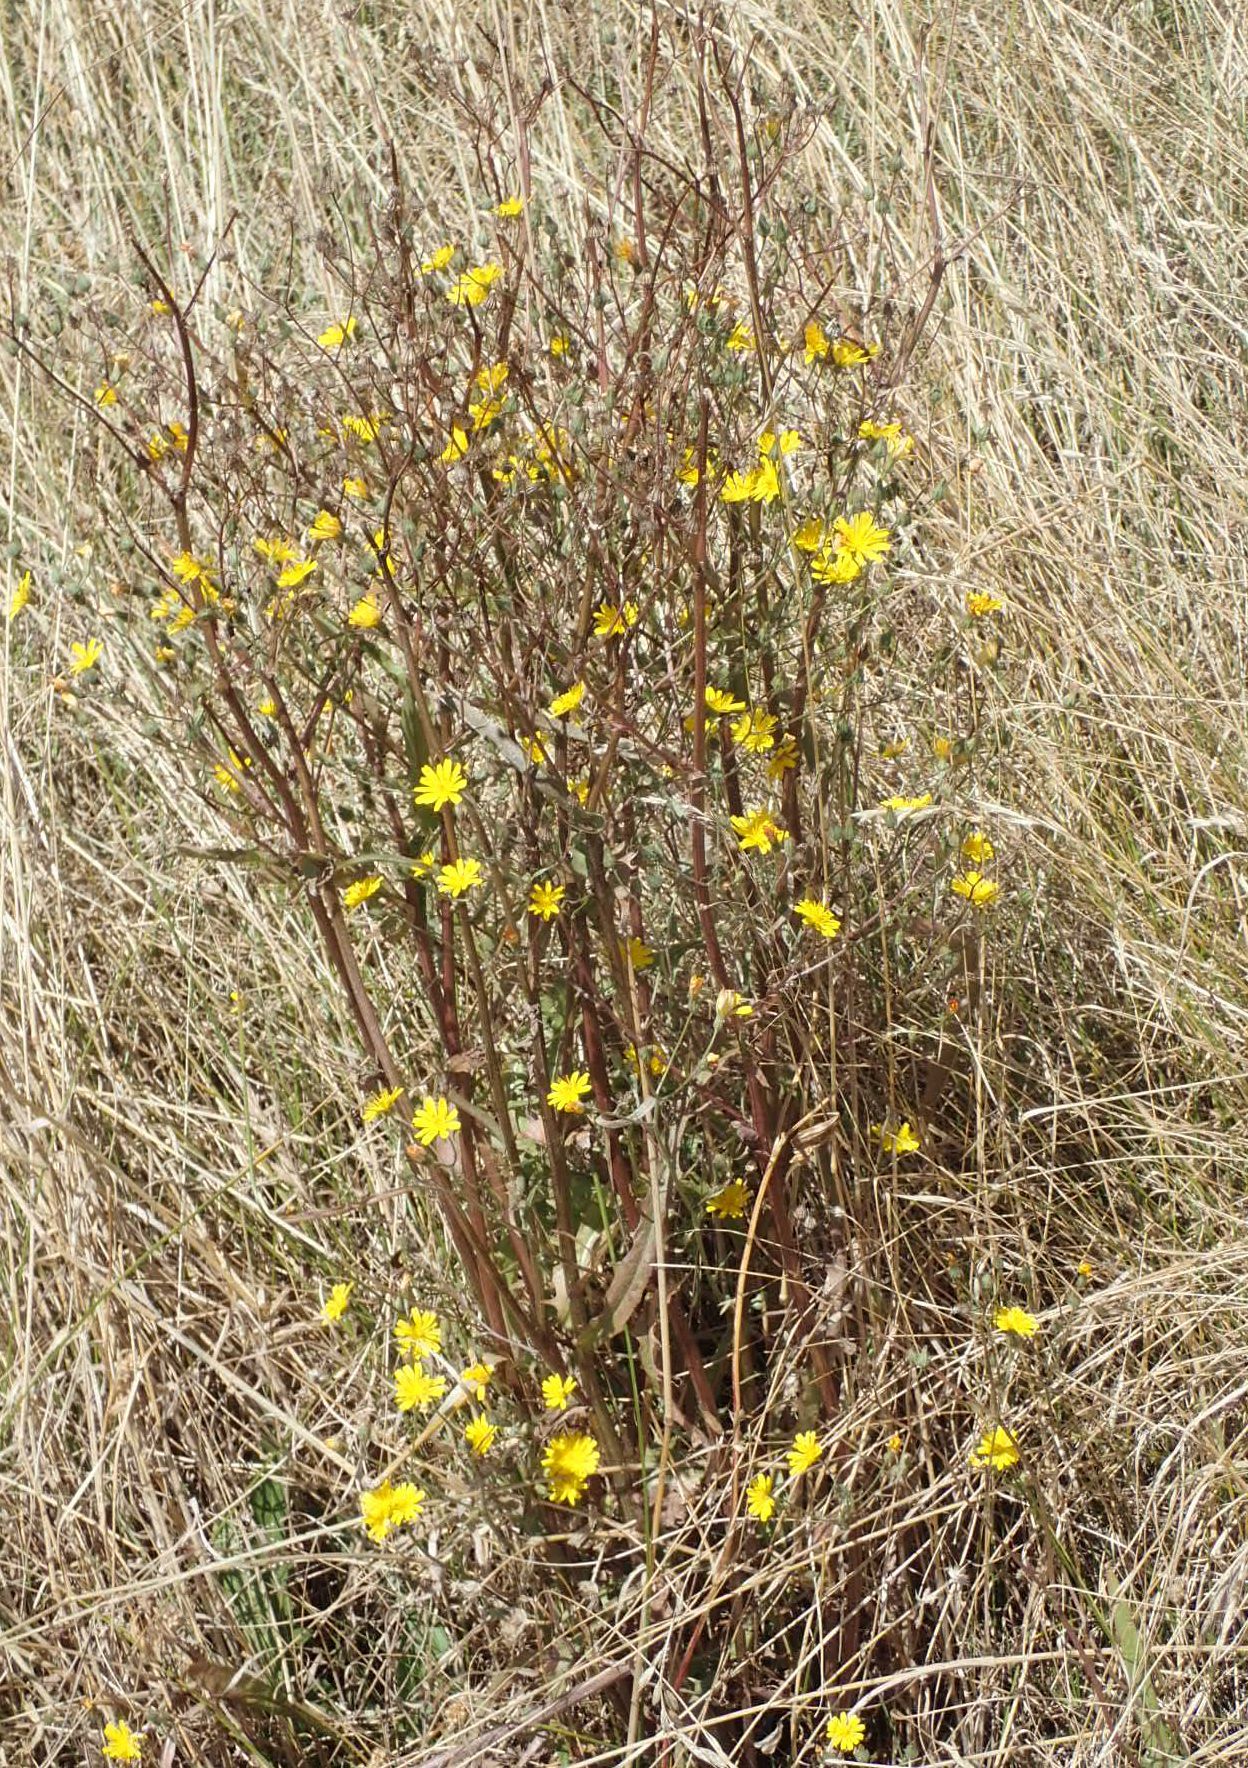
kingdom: Plantae
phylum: Tracheophyta
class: Magnoliopsida
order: Asterales
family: Asteraceae
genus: Crepis
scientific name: Crepis capillaris
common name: Smooth hawksbeard
